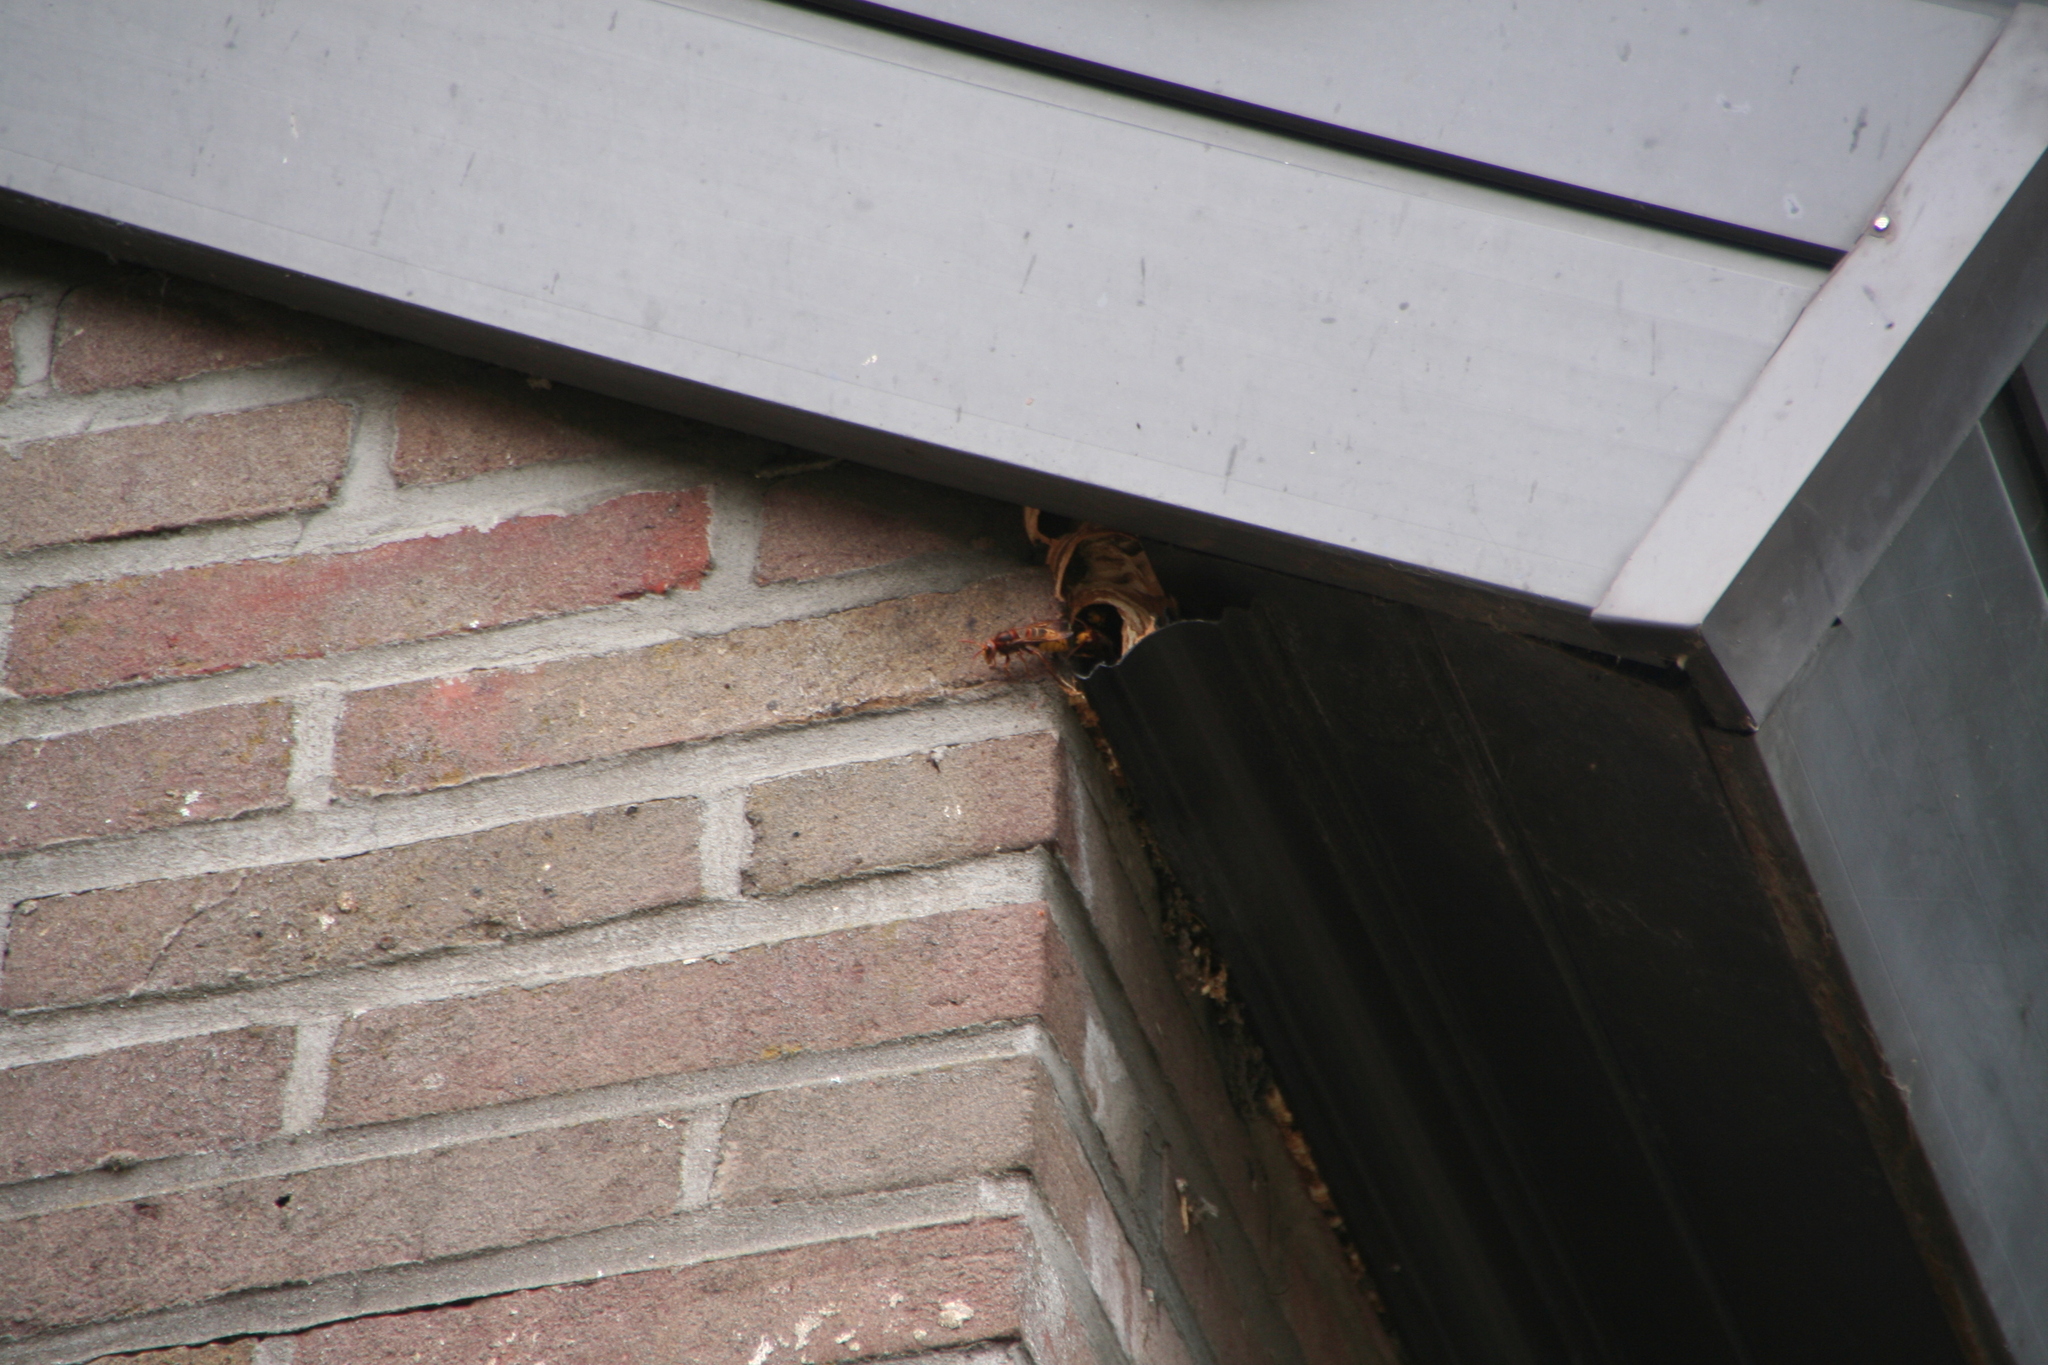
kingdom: Animalia
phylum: Arthropoda
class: Insecta
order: Hymenoptera
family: Vespidae
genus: Vespa
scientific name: Vespa crabro
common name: Hornet
